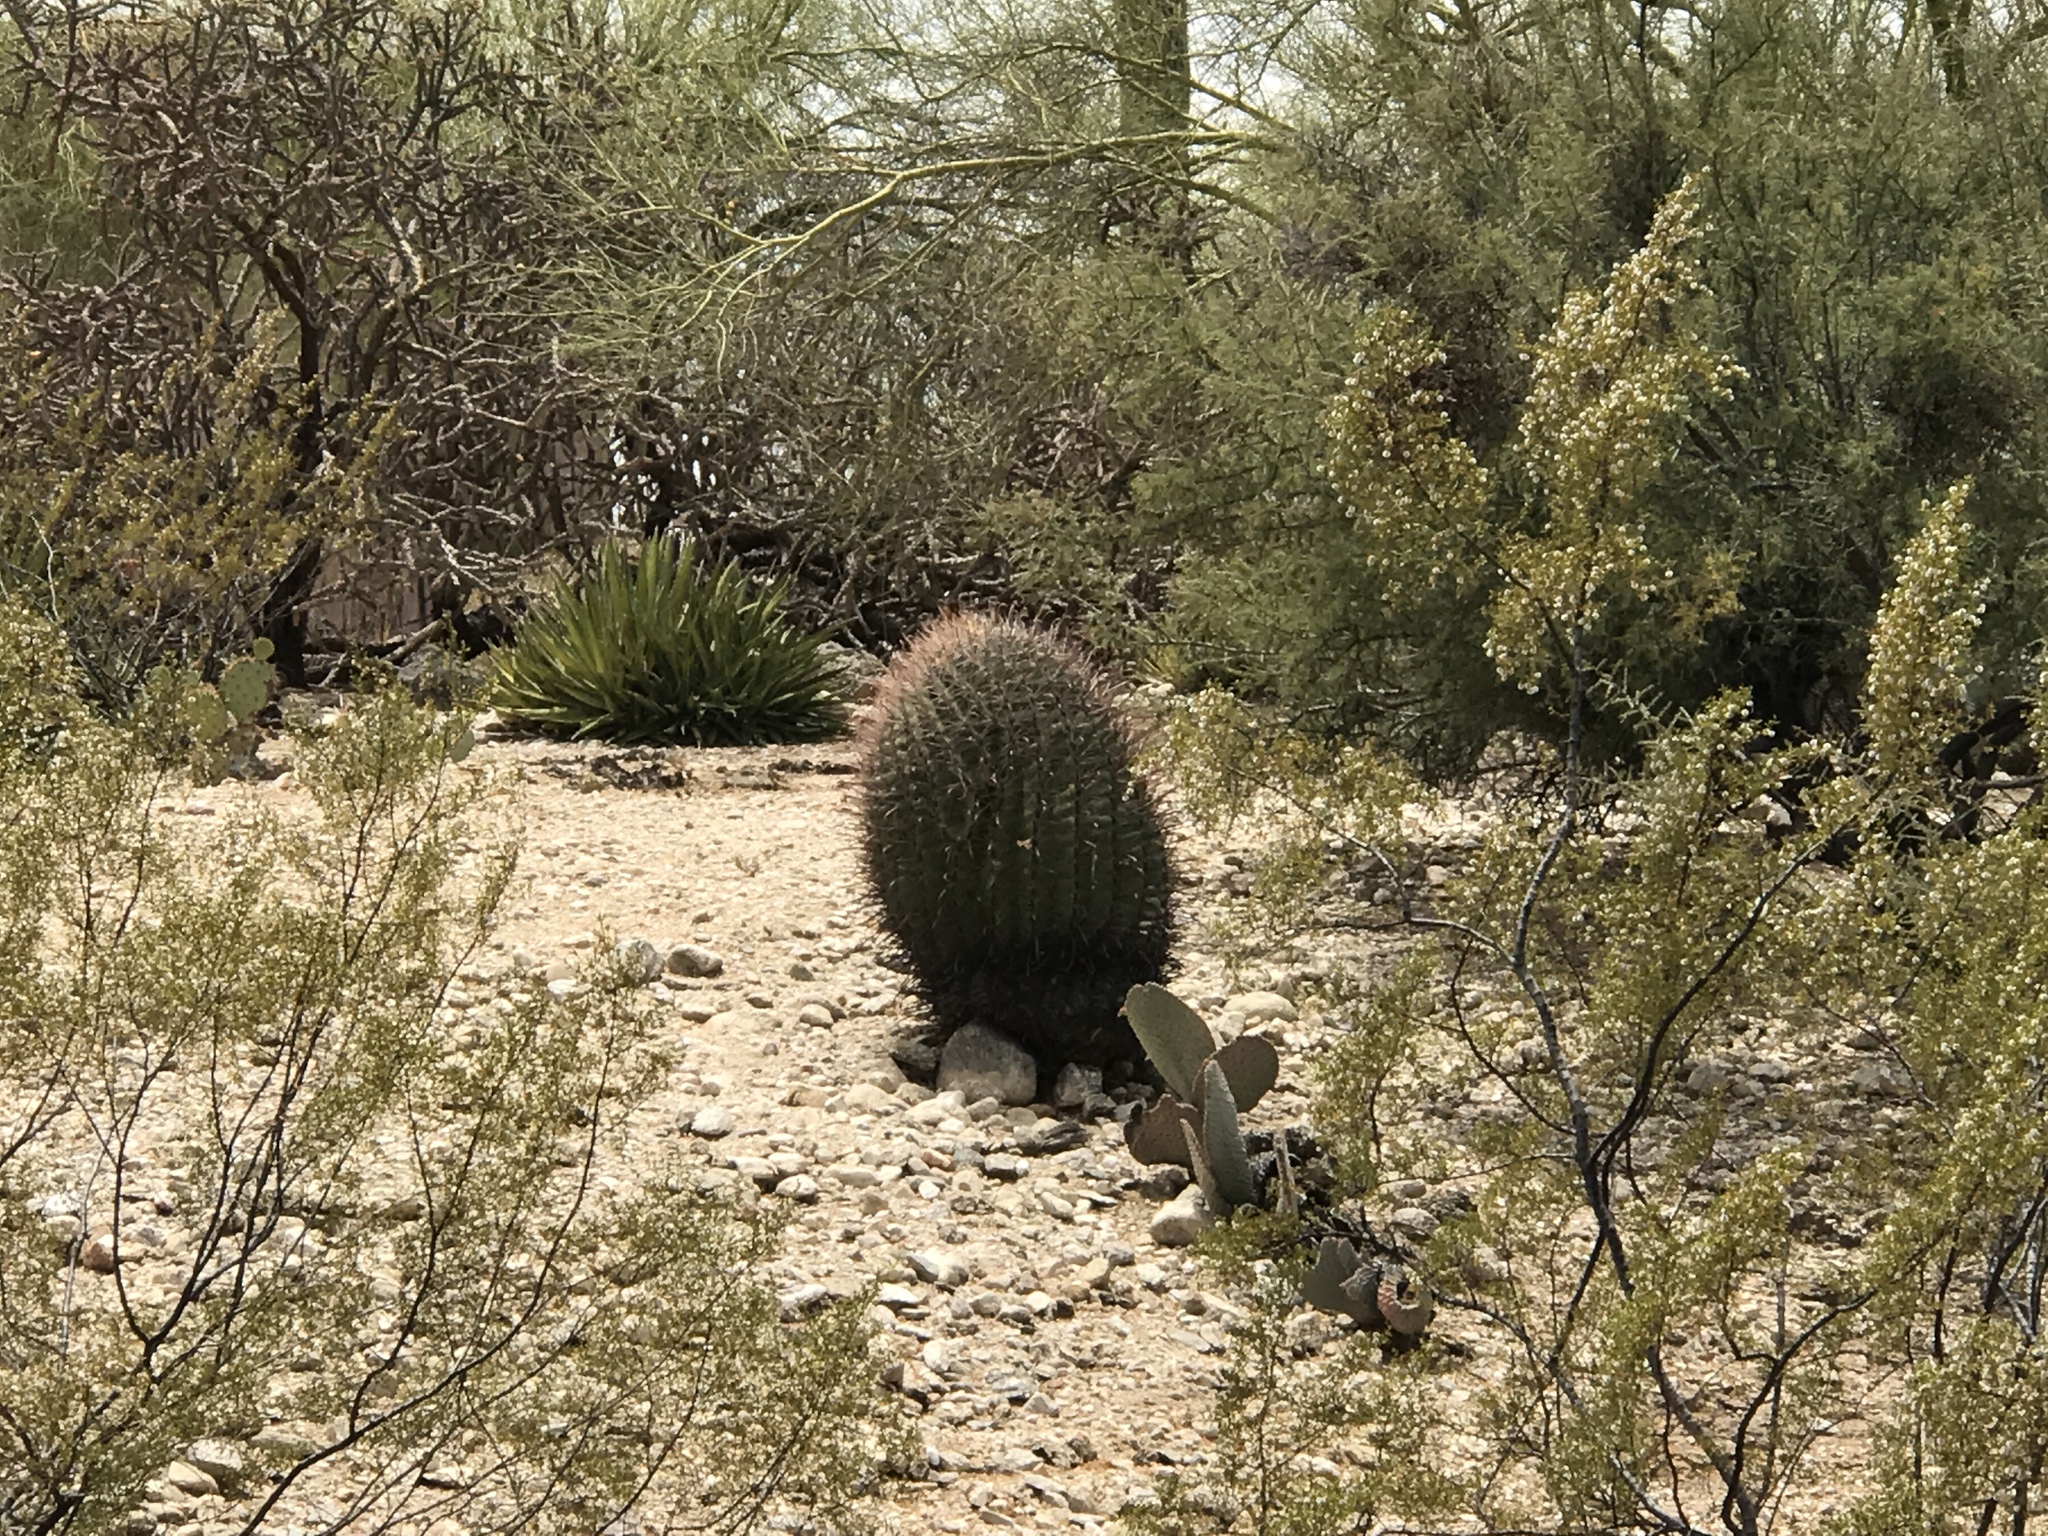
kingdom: Plantae
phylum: Tracheophyta
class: Magnoliopsida
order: Caryophyllales
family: Cactaceae
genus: Ferocactus
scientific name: Ferocactus wislizeni
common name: Candy barrel cactus
